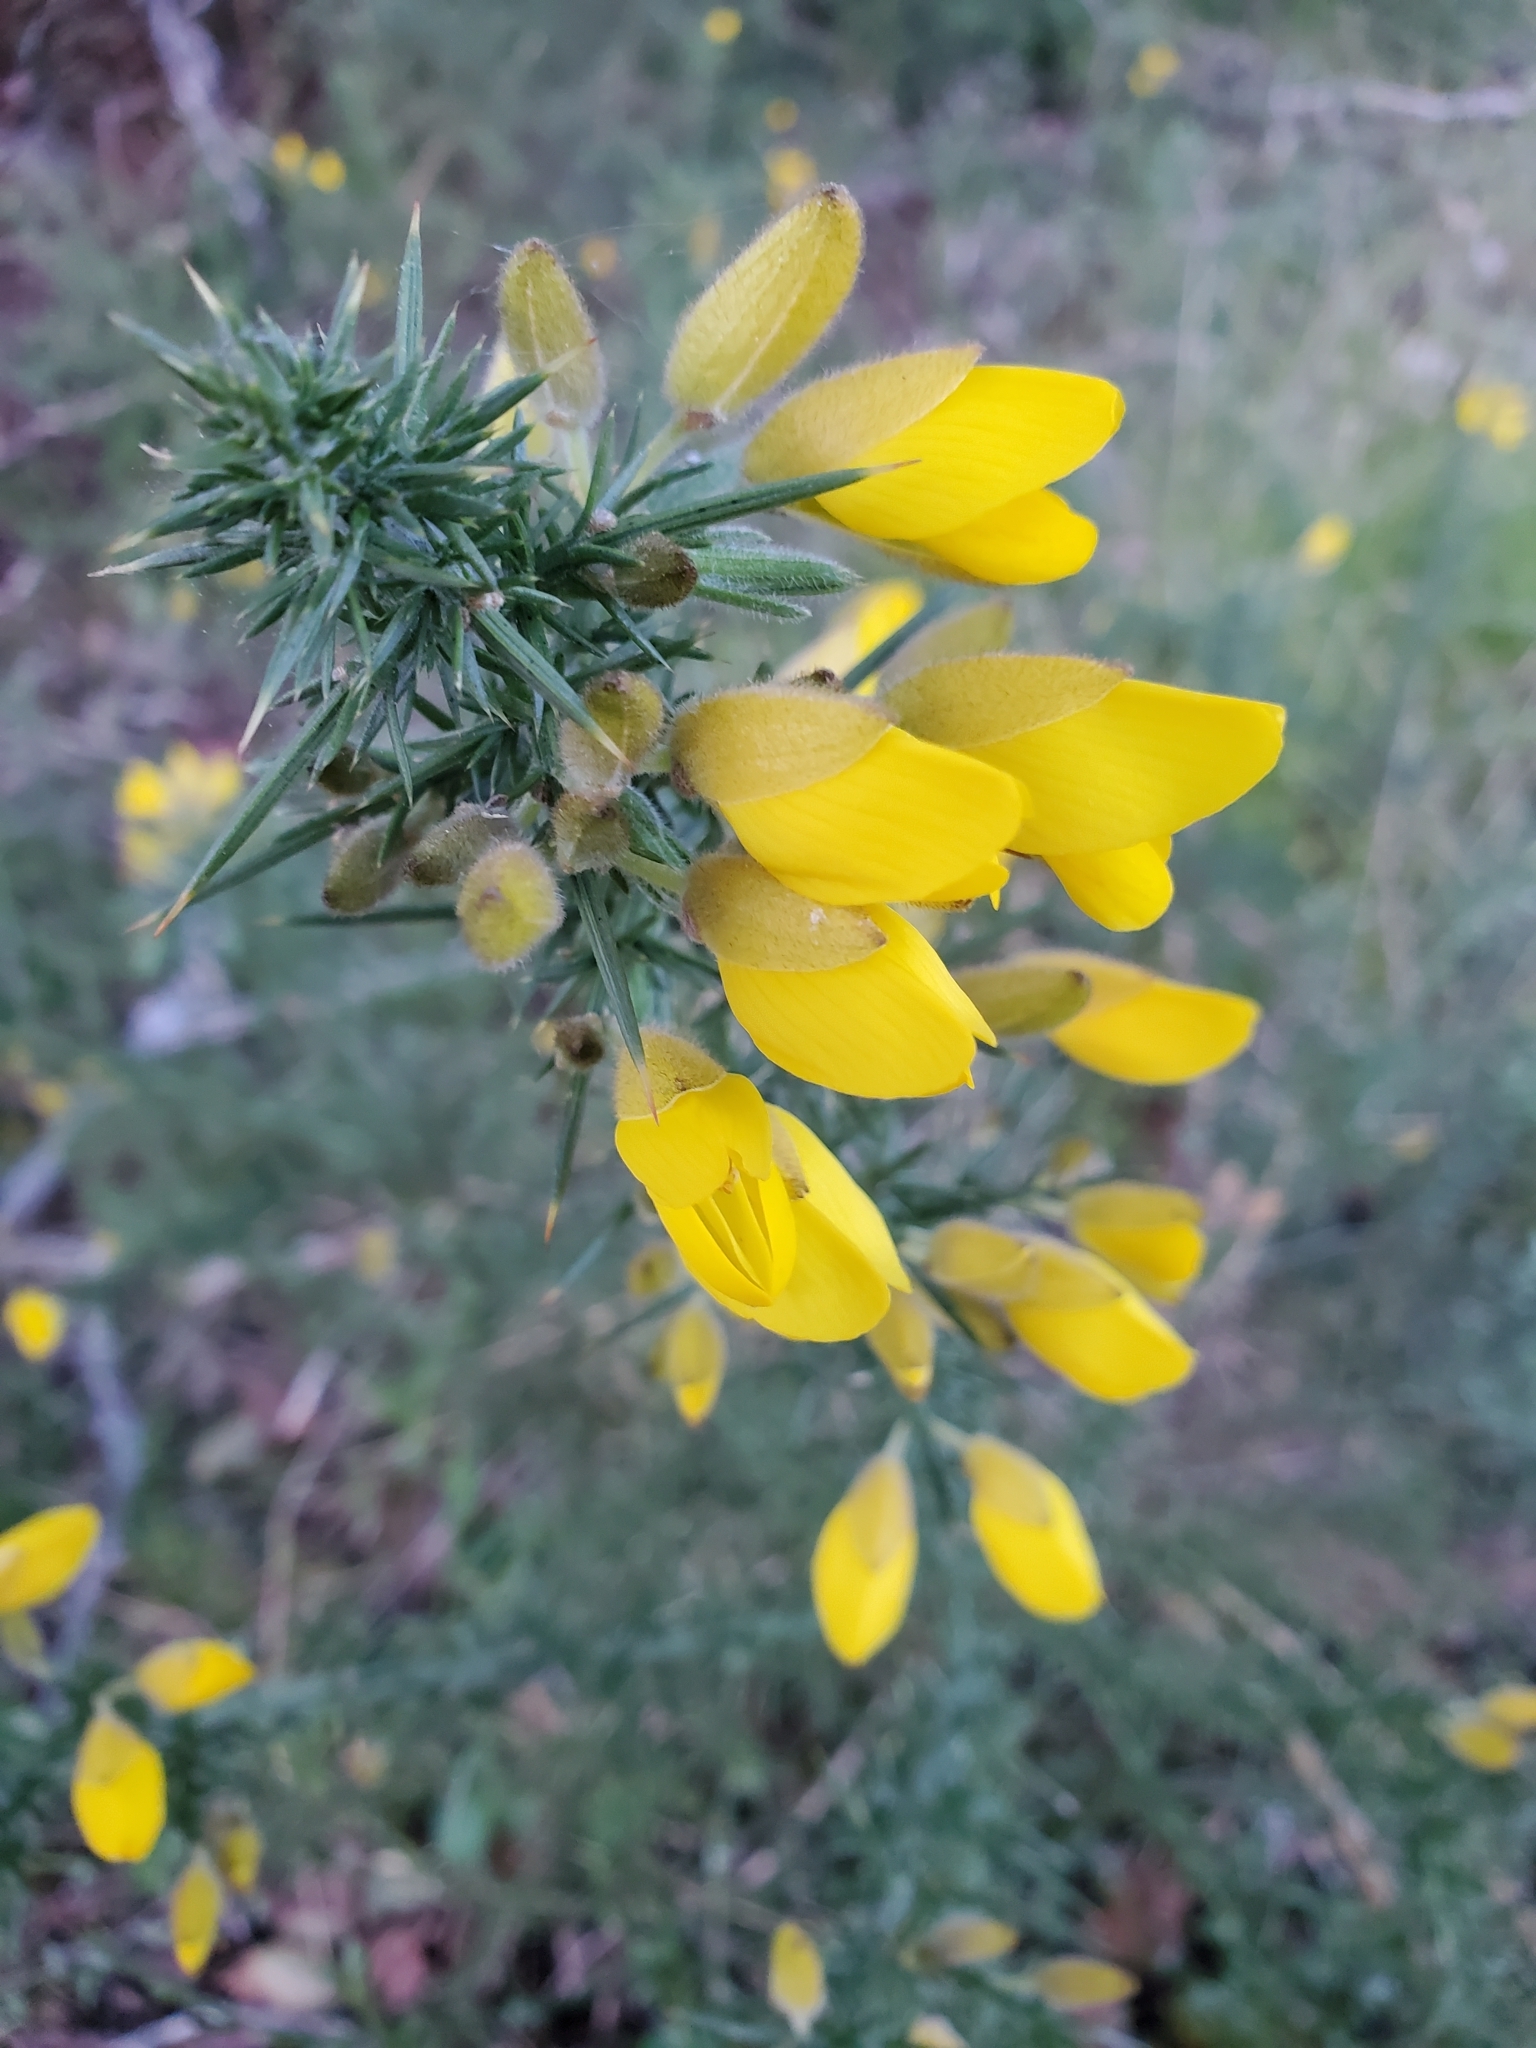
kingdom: Plantae
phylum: Tracheophyta
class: Magnoliopsida
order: Fabales
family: Fabaceae
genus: Ulex
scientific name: Ulex europaeus
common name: Common gorse
